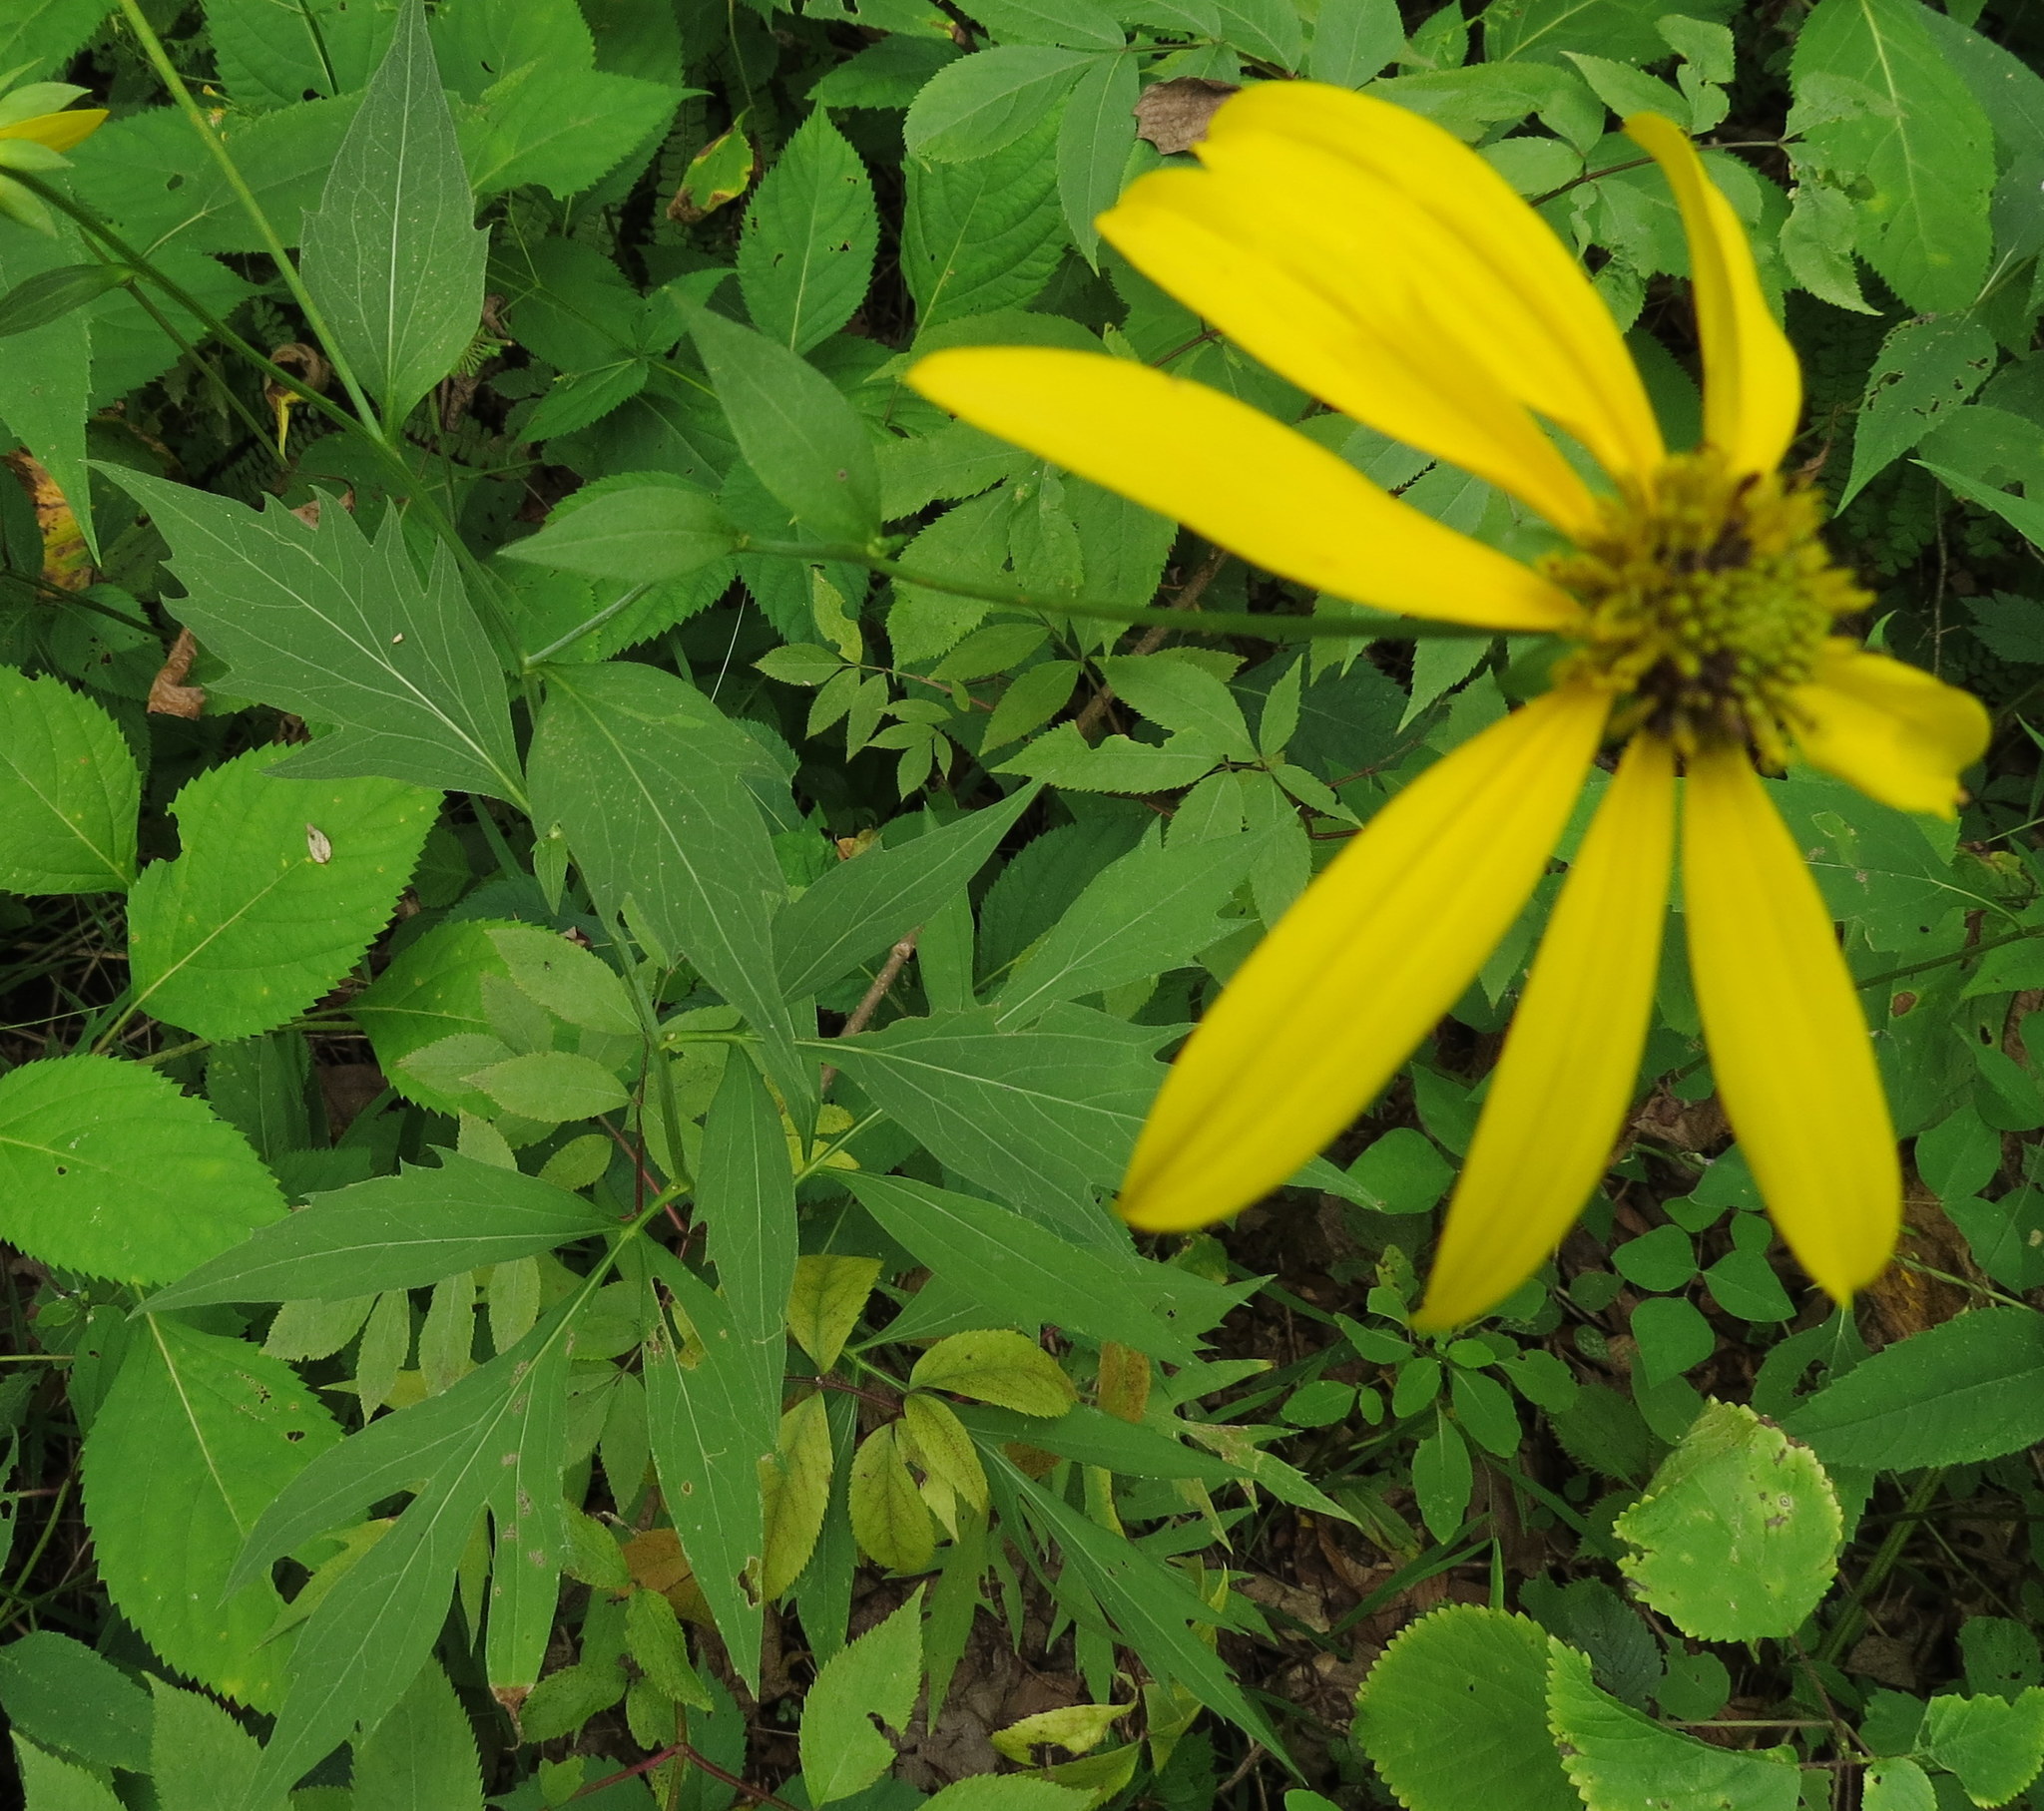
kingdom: Plantae
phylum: Tracheophyta
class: Magnoliopsida
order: Asterales
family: Asteraceae
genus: Rudbeckia
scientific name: Rudbeckia laciniata
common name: Coneflower
